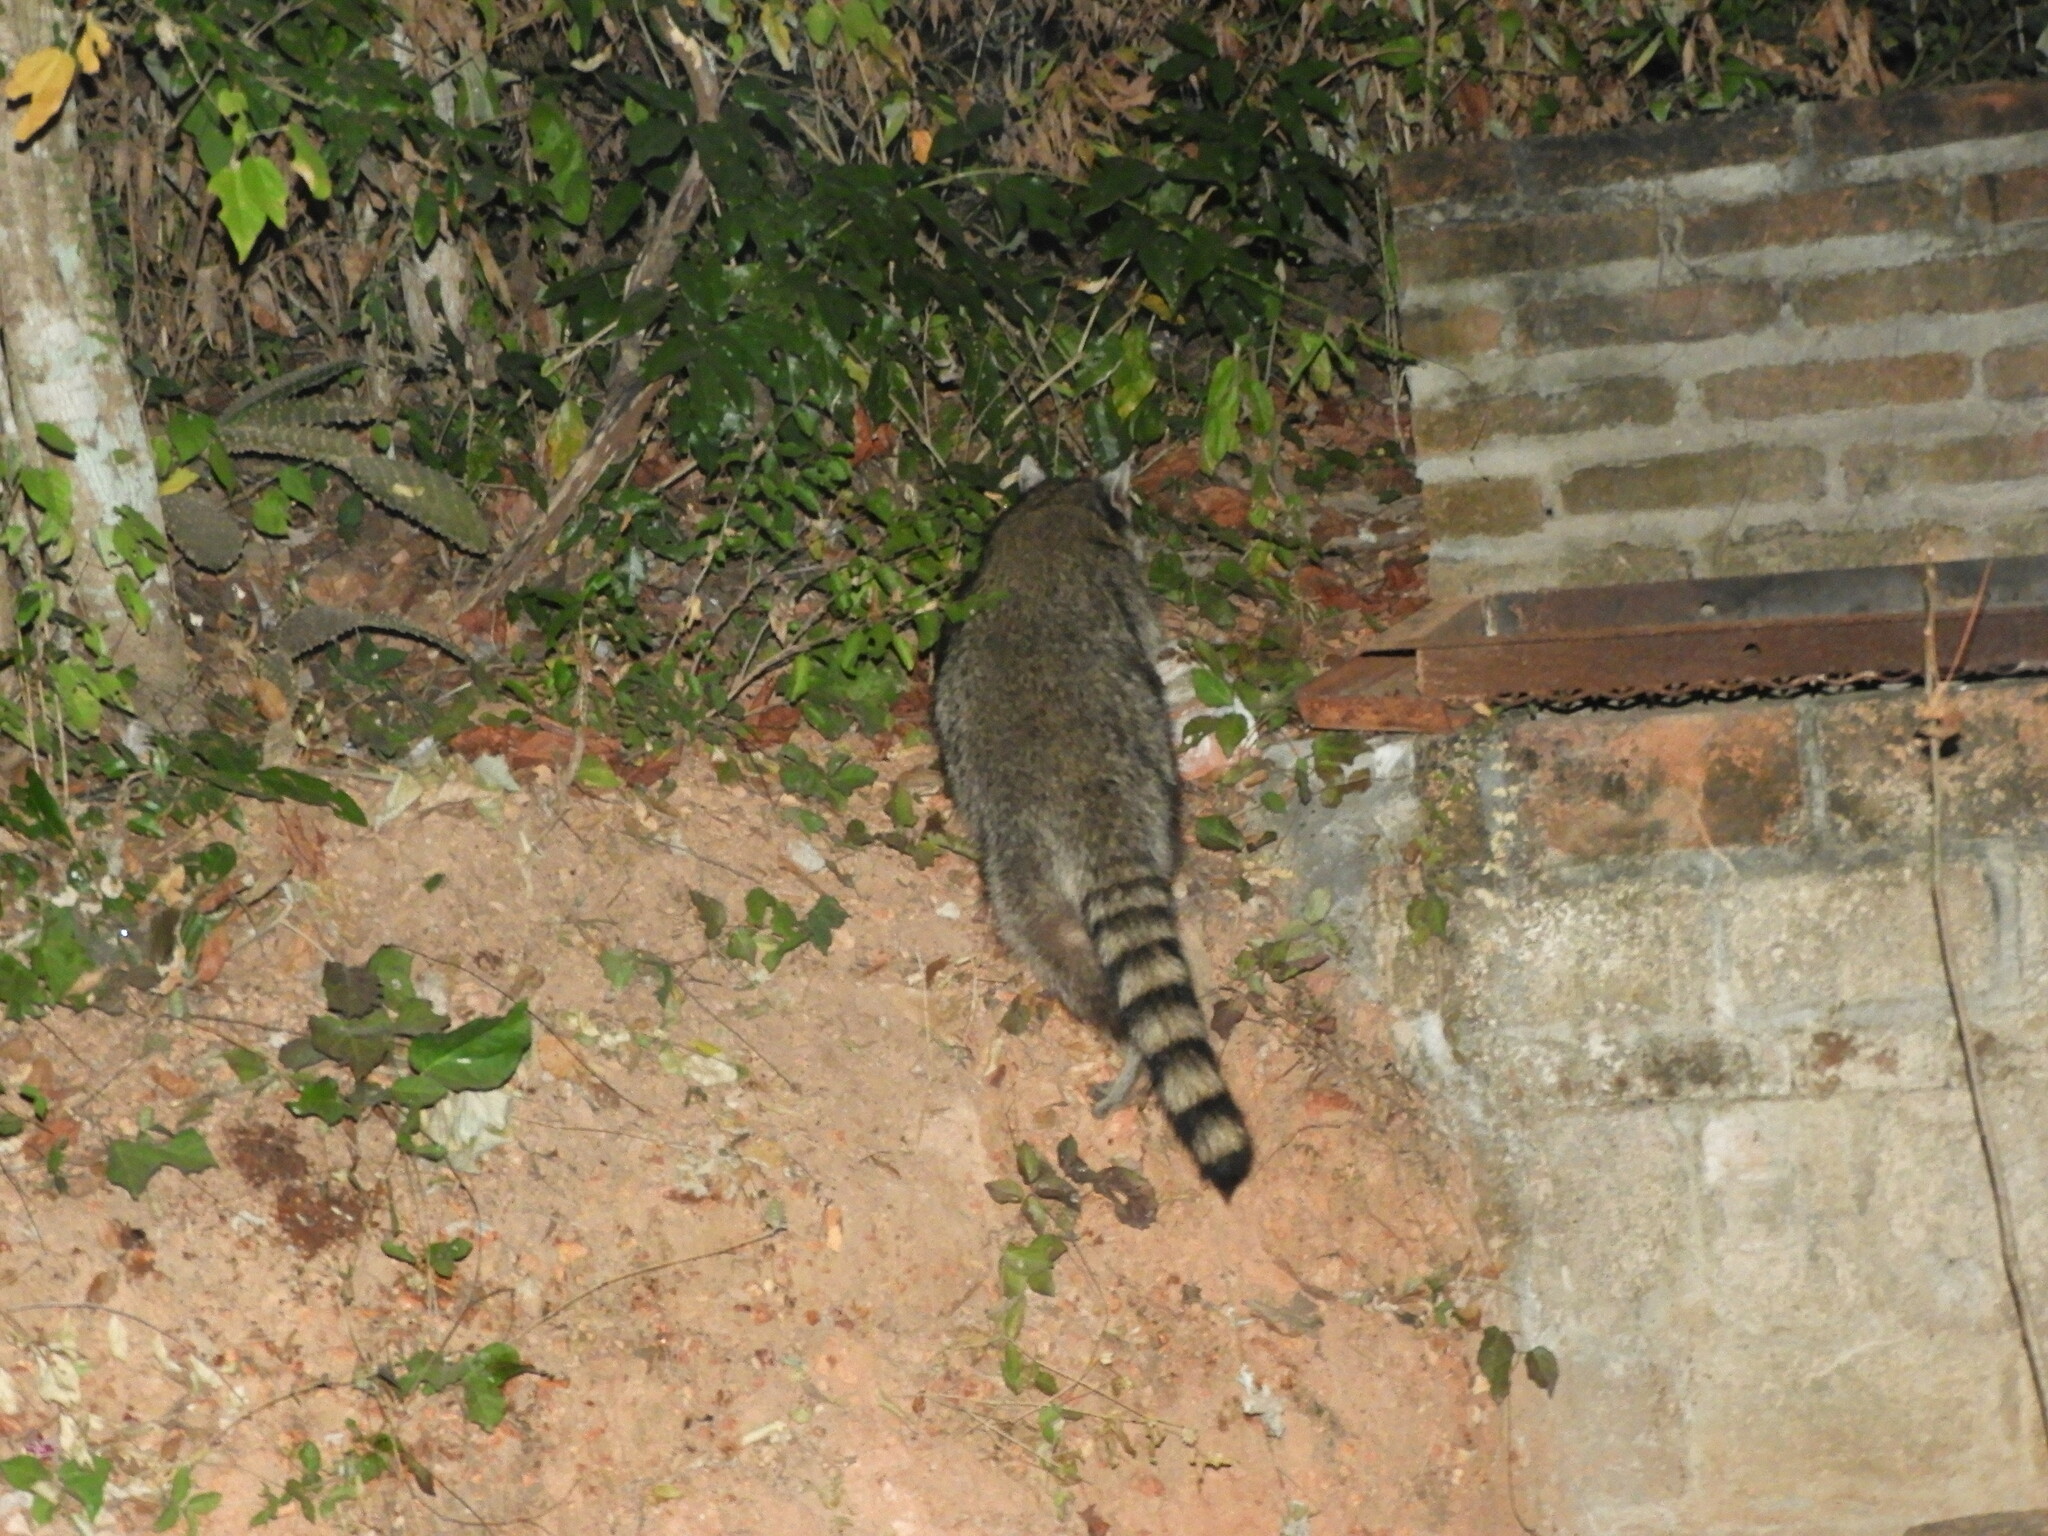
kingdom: Animalia
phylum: Chordata
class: Mammalia
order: Carnivora
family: Procyonidae
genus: Procyon
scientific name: Procyon lotor
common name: Raccoon
